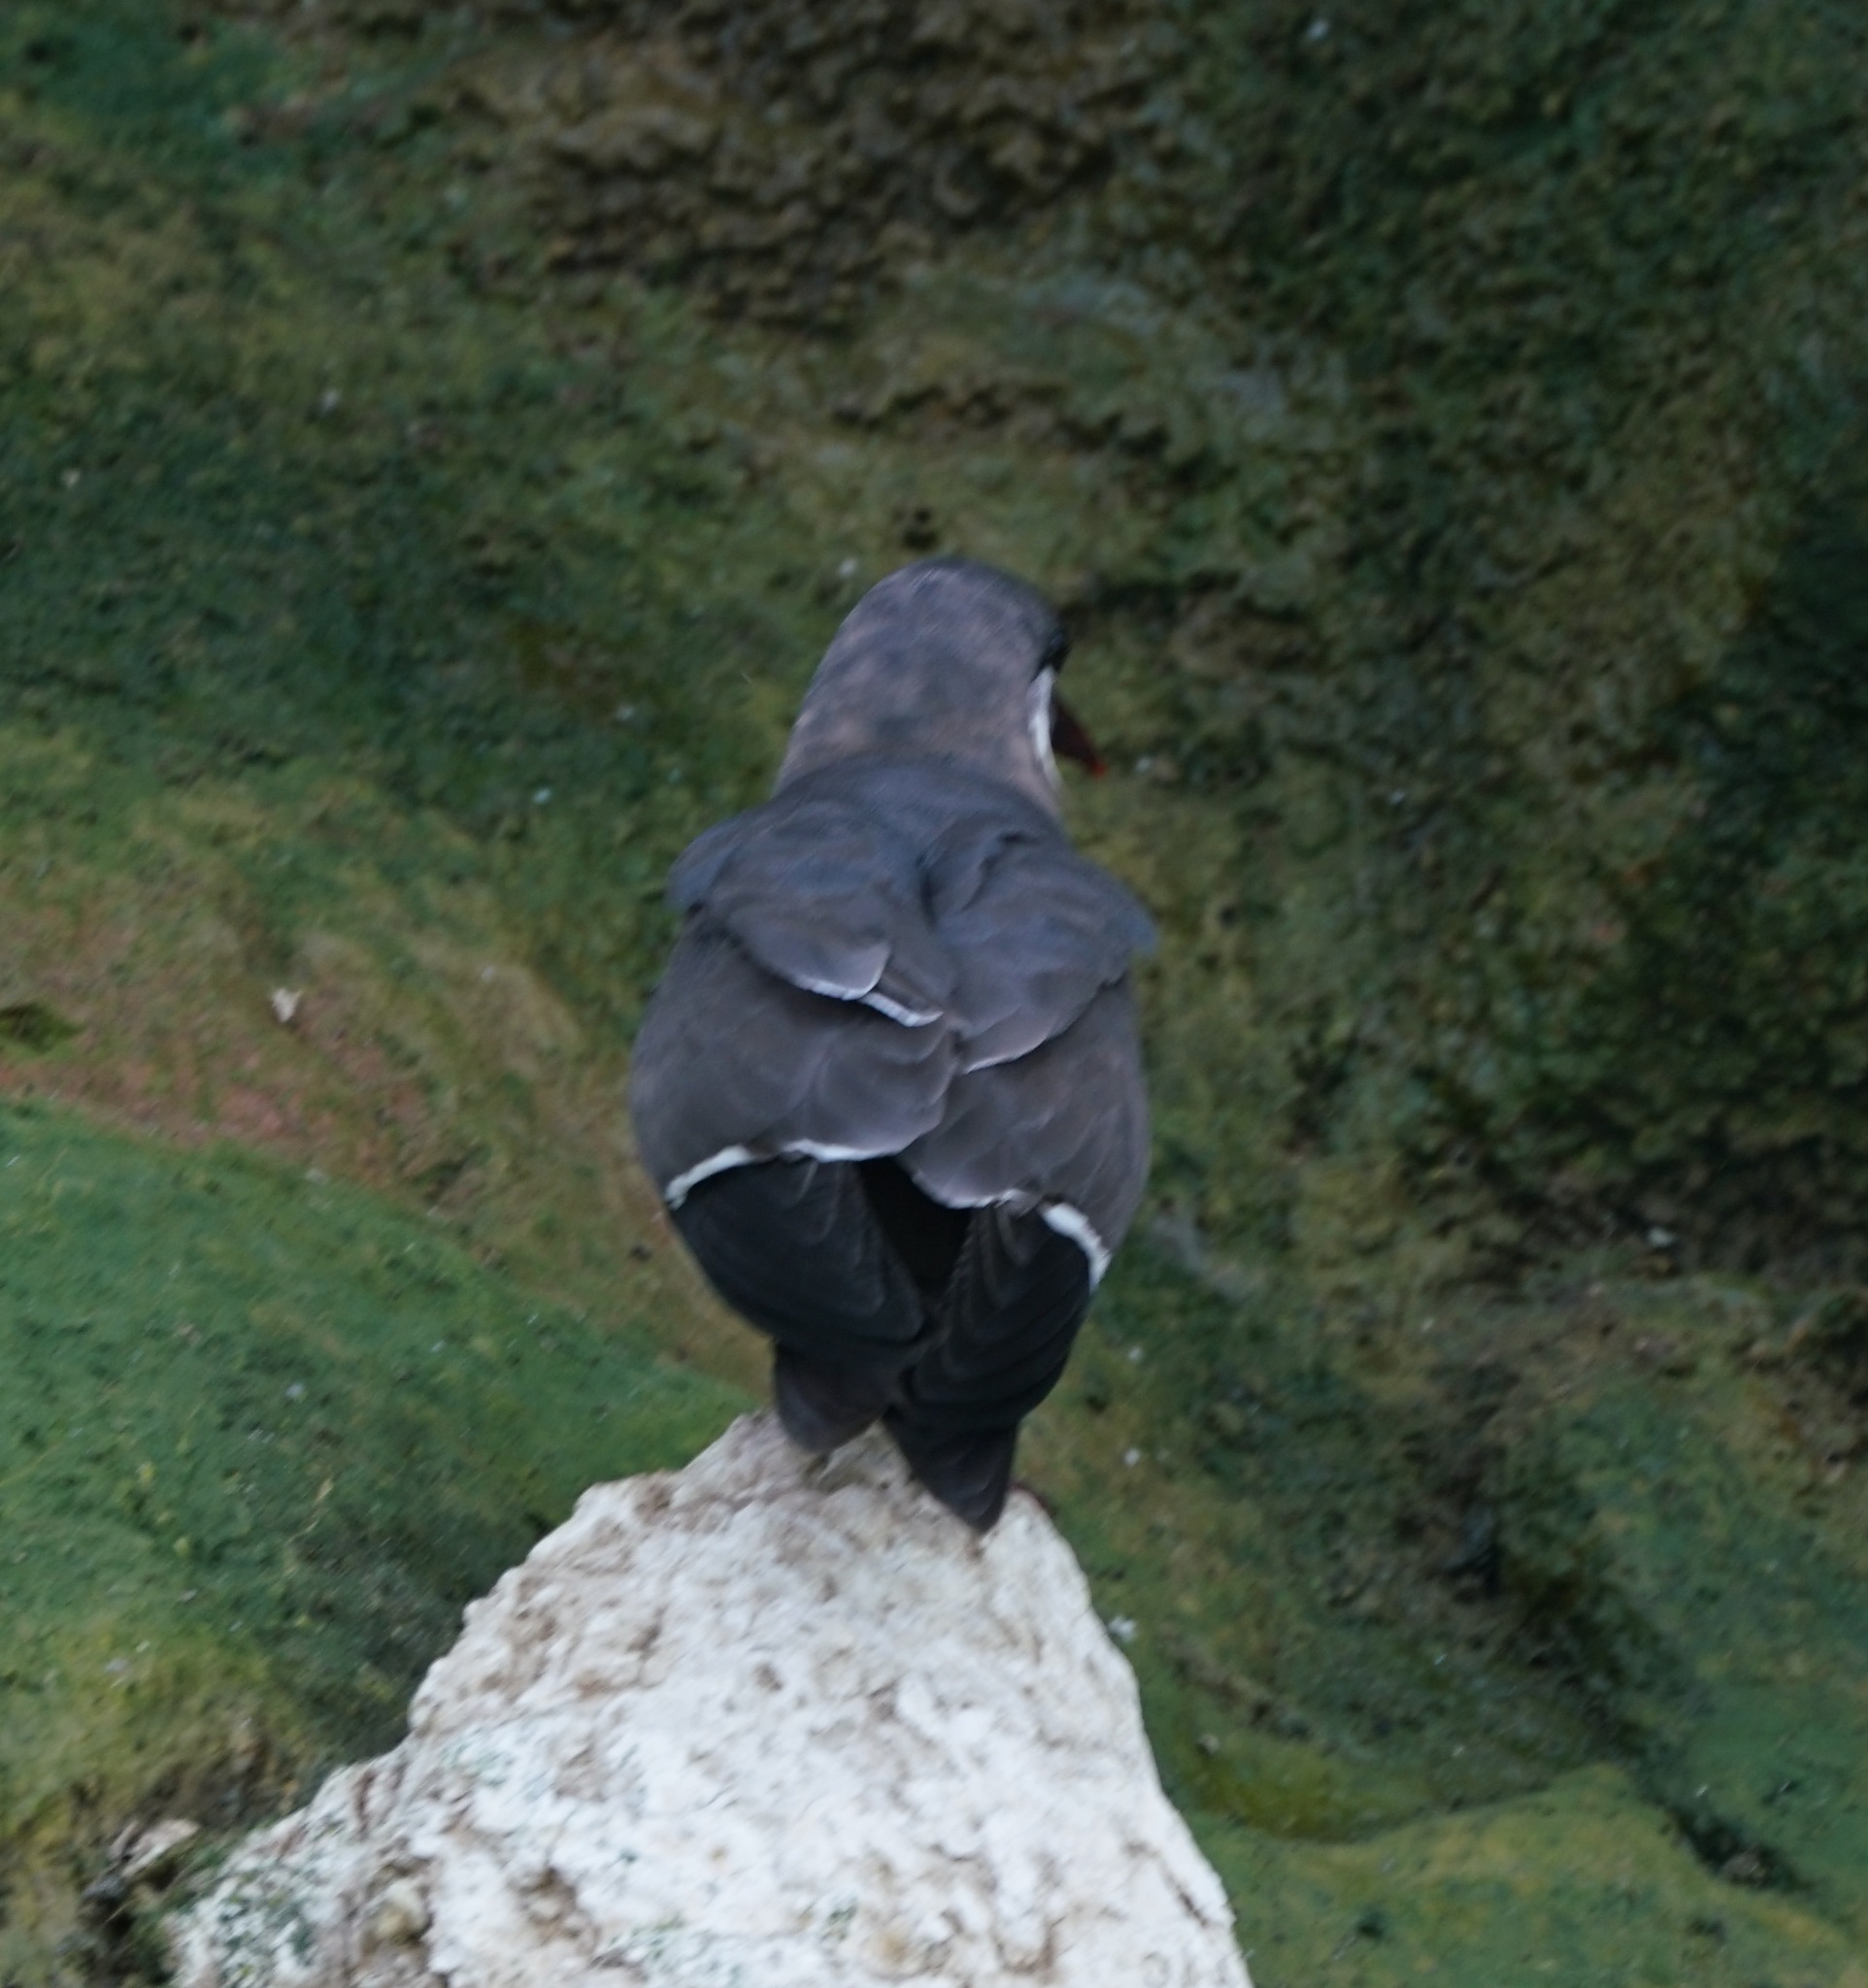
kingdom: Animalia
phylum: Chordata
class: Aves
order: Charadriiformes
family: Laridae
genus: Larosterna
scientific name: Larosterna inca
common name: Inca tern
